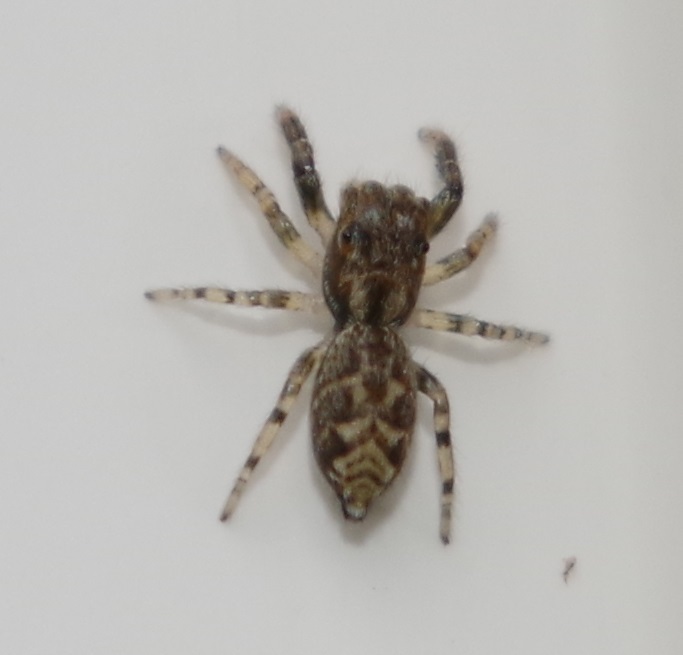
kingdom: Animalia
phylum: Arthropoda
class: Arachnida
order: Araneae
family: Salticidae
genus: Marpissa
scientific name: Marpissa muscosa
